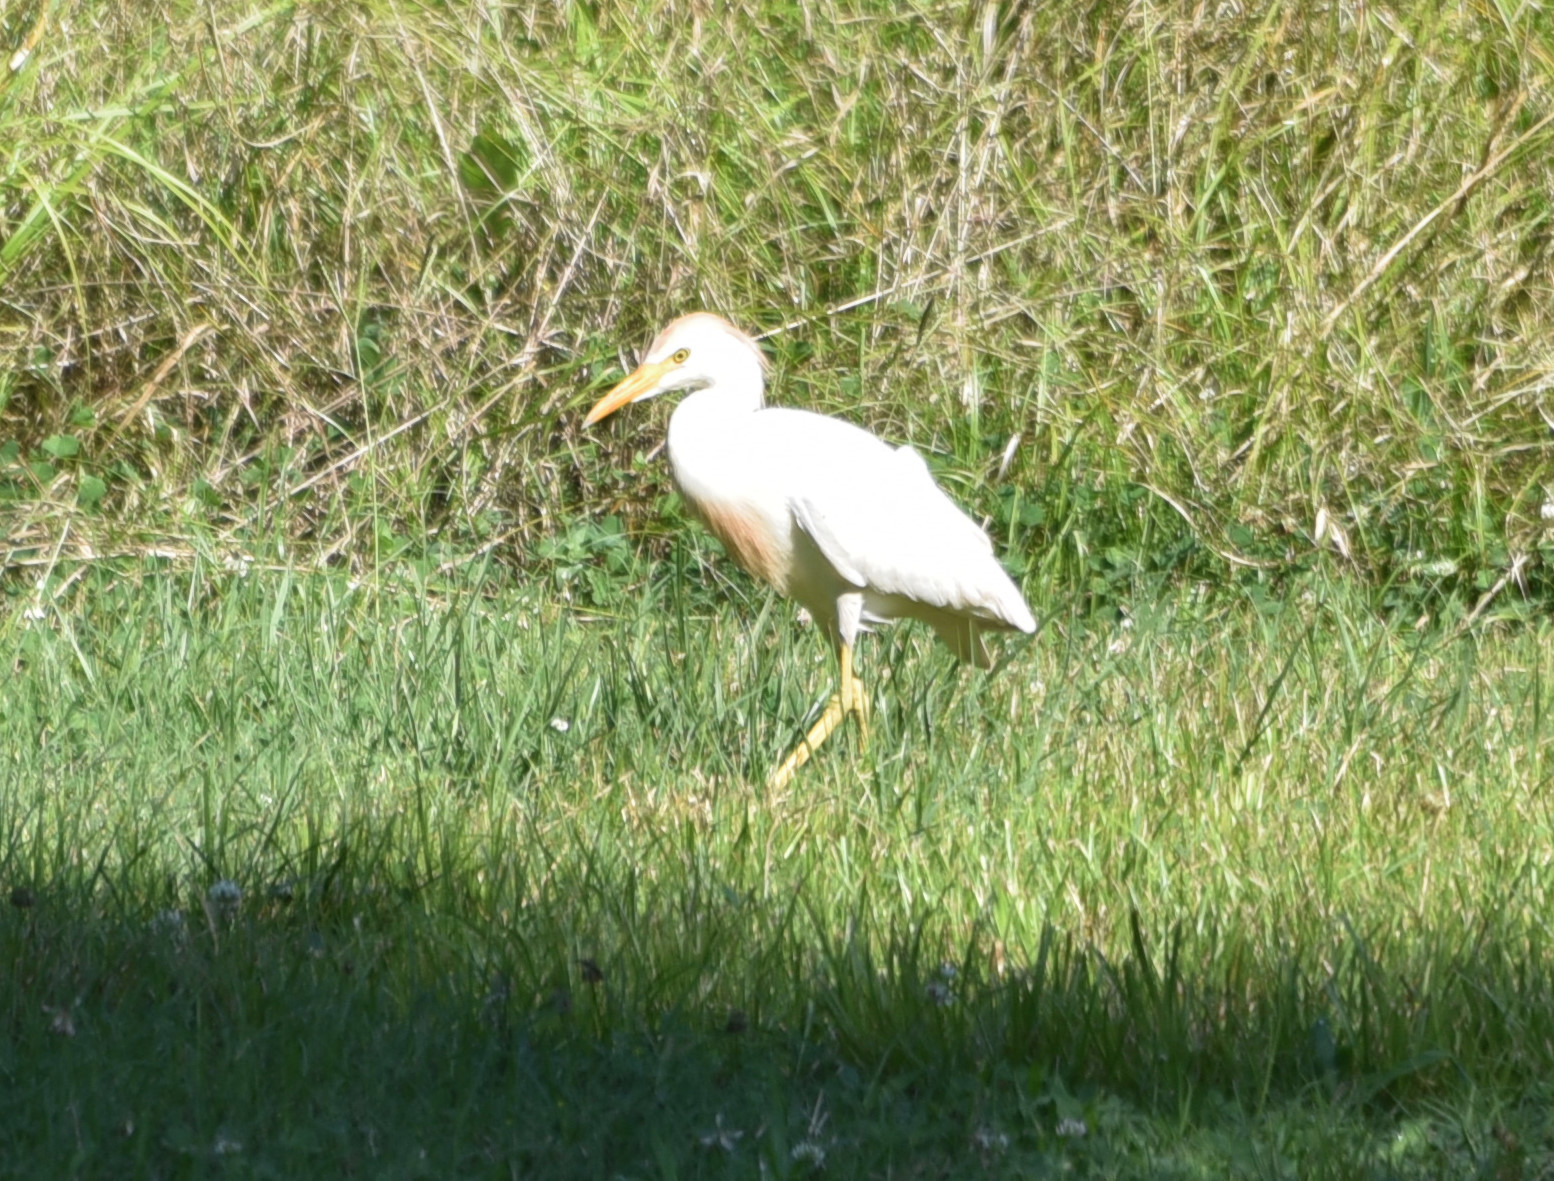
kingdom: Animalia
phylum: Chordata
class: Aves
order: Pelecaniformes
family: Ardeidae
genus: Bubulcus
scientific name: Bubulcus ibis
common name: Cattle egret
